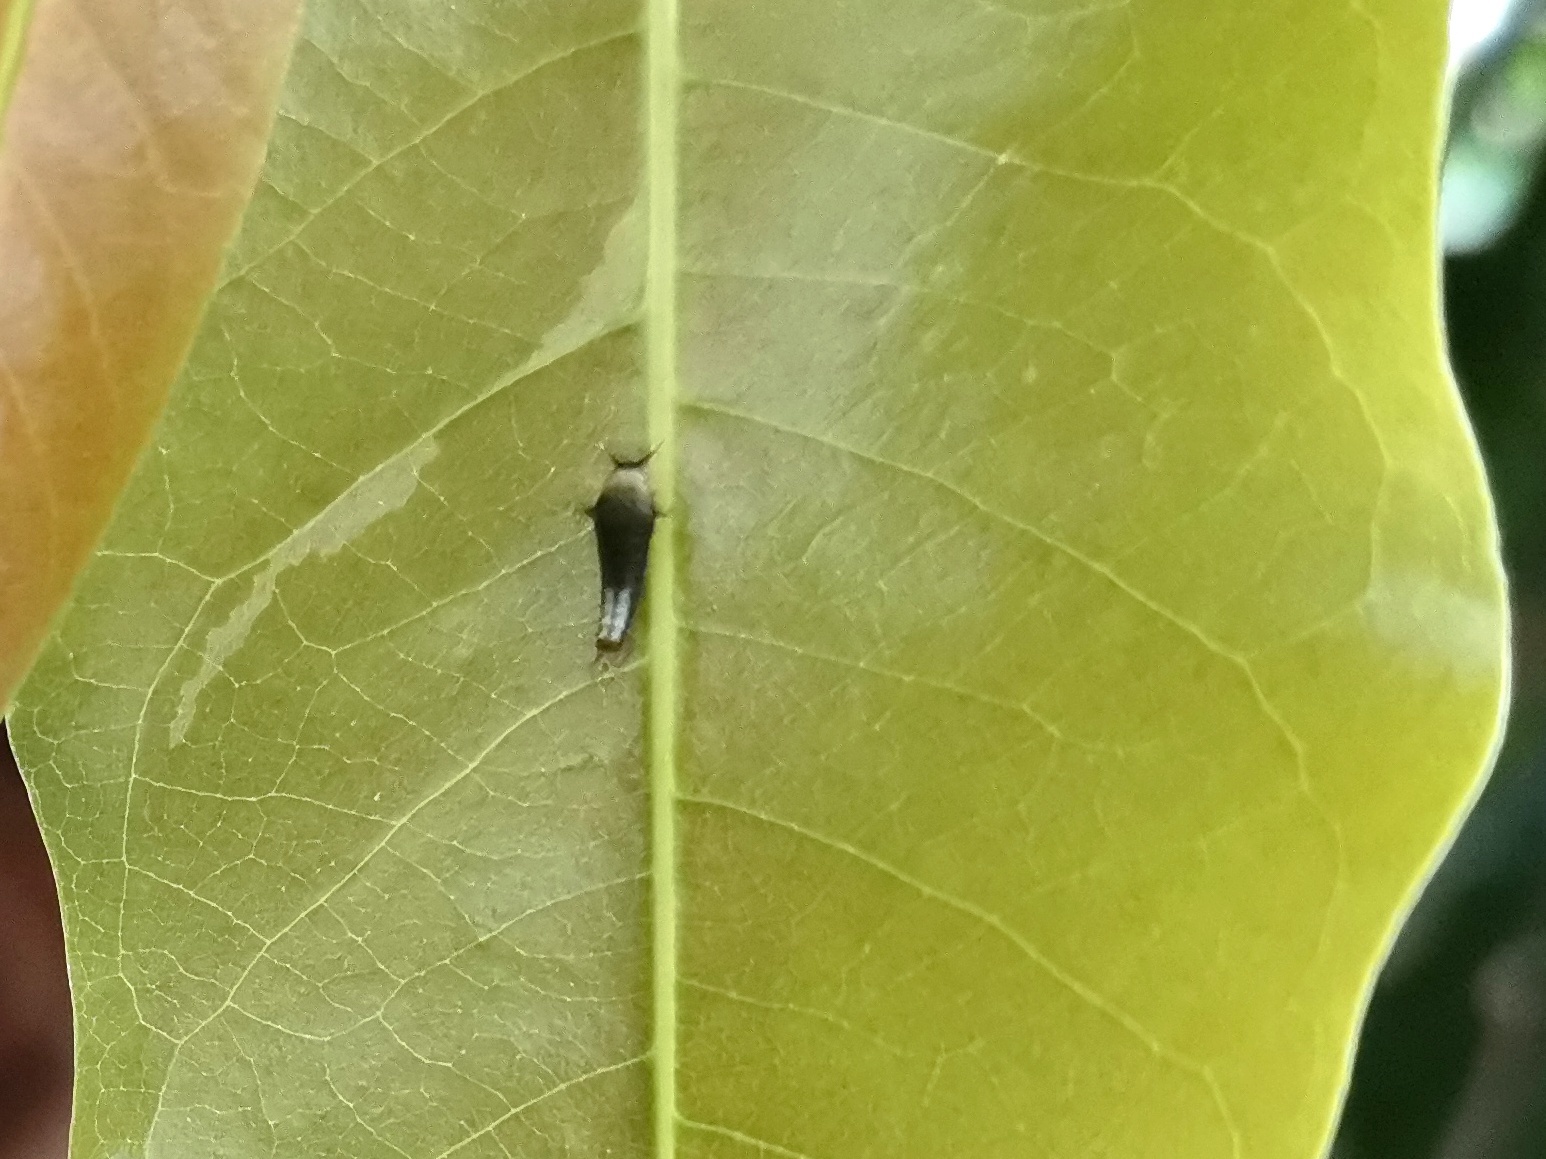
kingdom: Animalia
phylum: Arthropoda
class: Insecta
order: Lepidoptera
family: Papilionidae
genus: Graphium
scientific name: Graphium agamemnon
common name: Tailed jay
